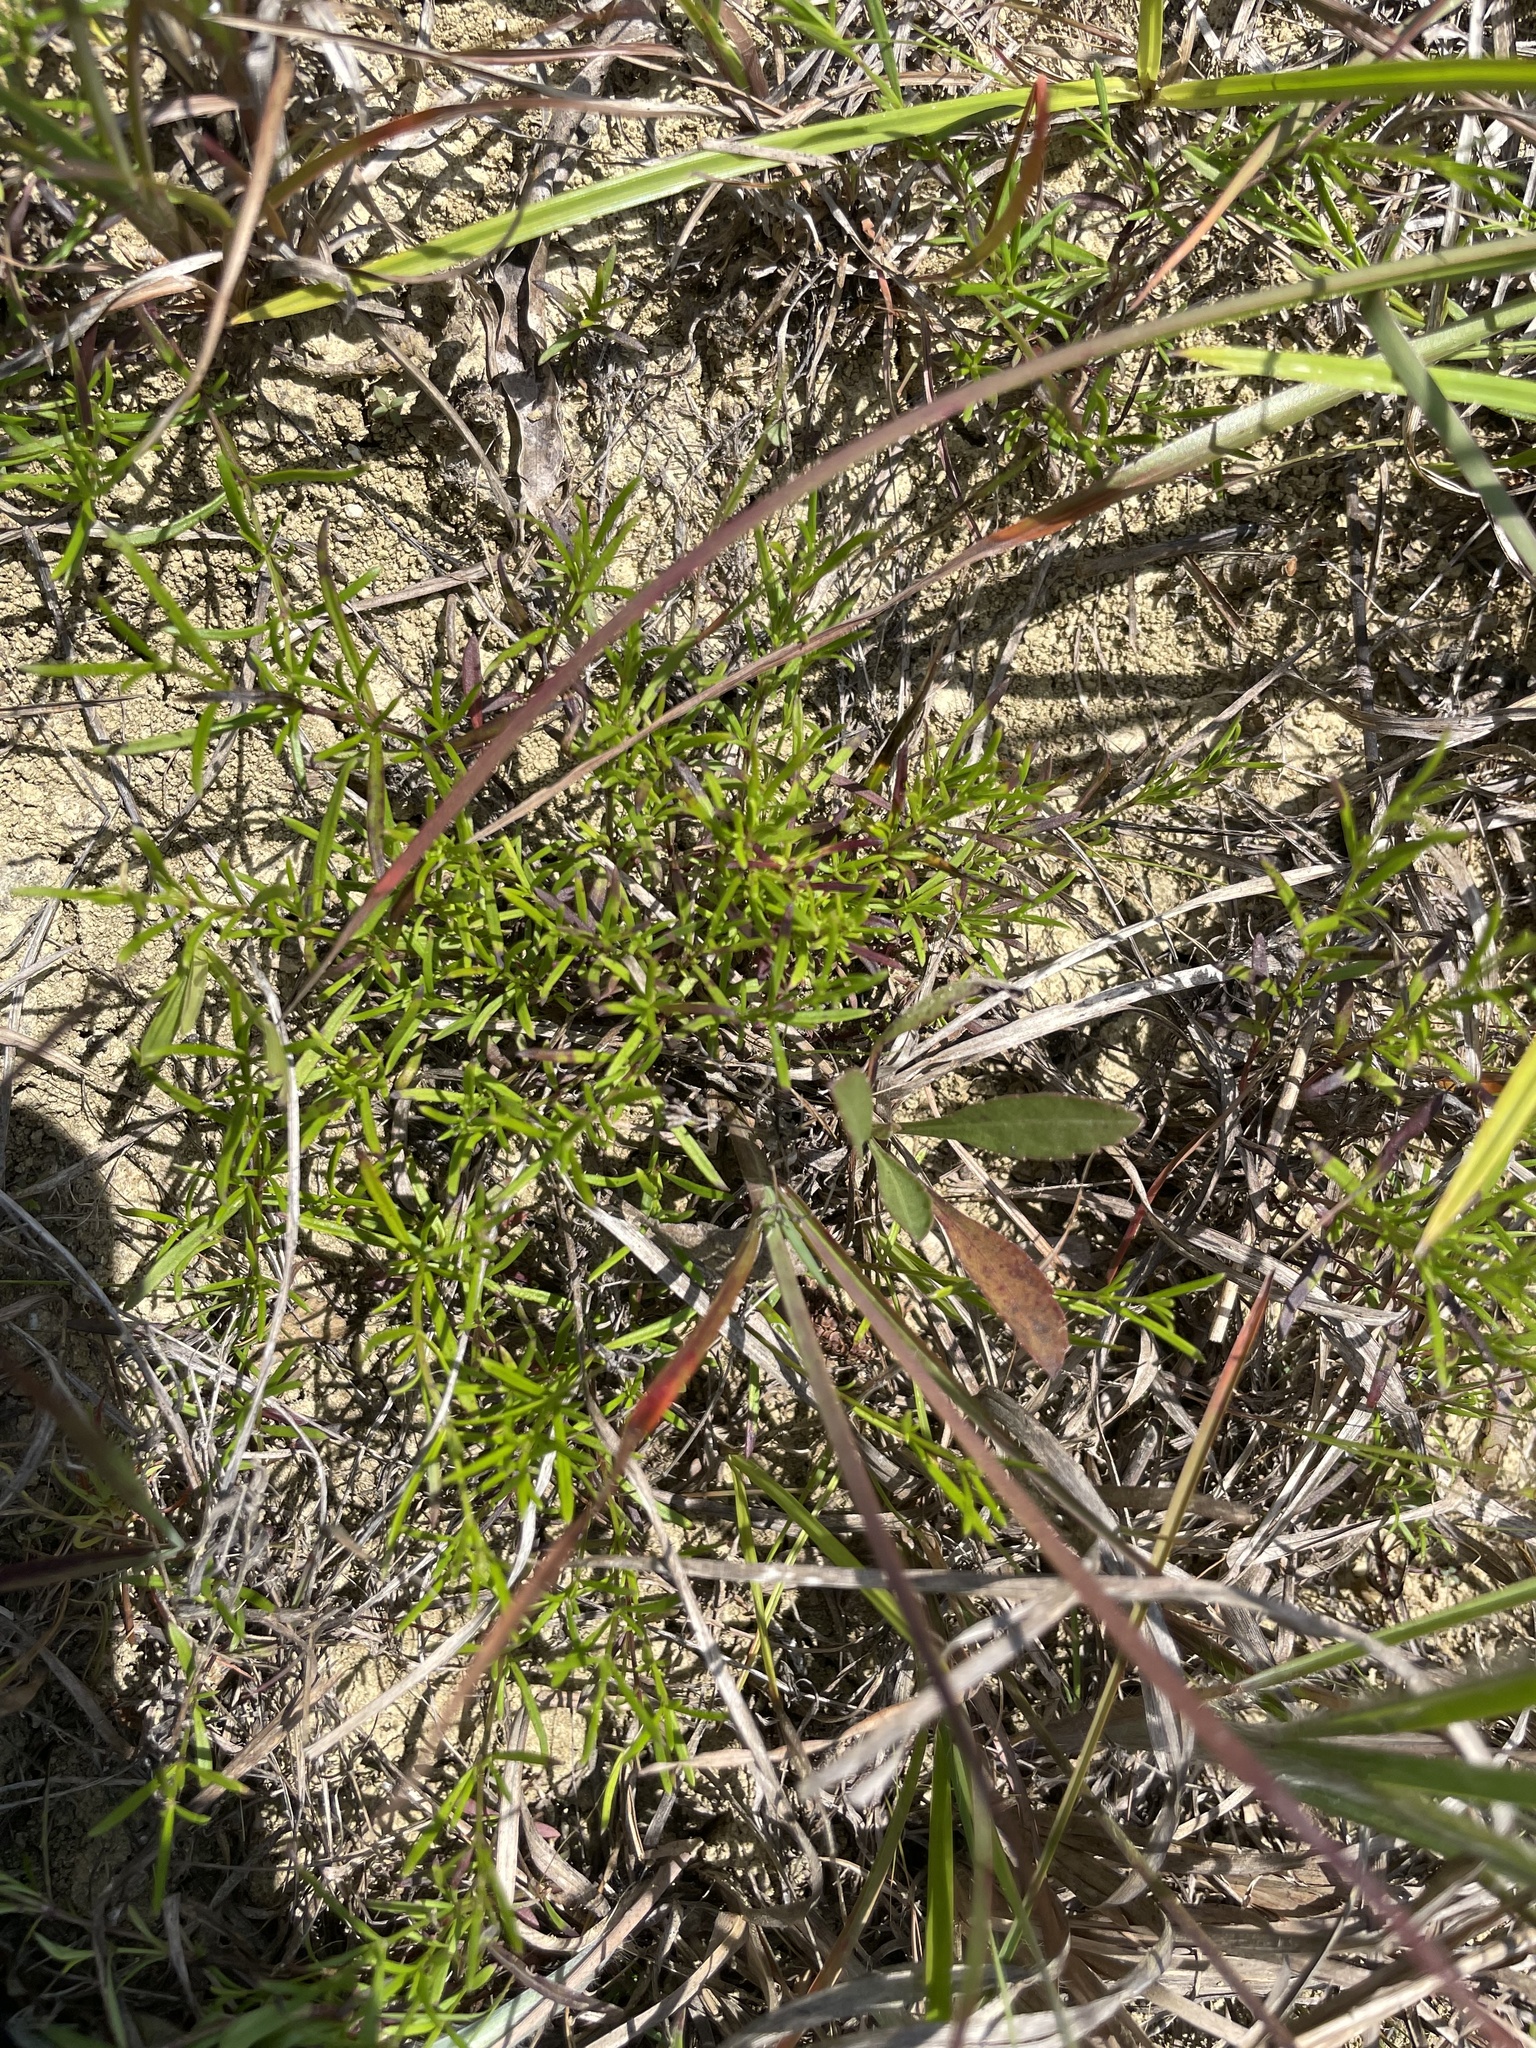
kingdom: Plantae
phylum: Tracheophyta
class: Magnoliopsida
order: Gentianales
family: Rubiaceae
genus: Stenaria
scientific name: Stenaria nigricans
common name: Diamondflowers
